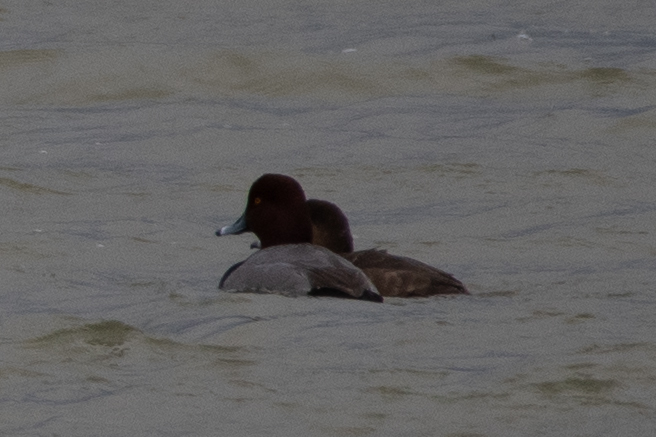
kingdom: Animalia
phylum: Chordata
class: Aves
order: Anseriformes
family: Anatidae
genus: Aythya
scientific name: Aythya americana
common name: Redhead
